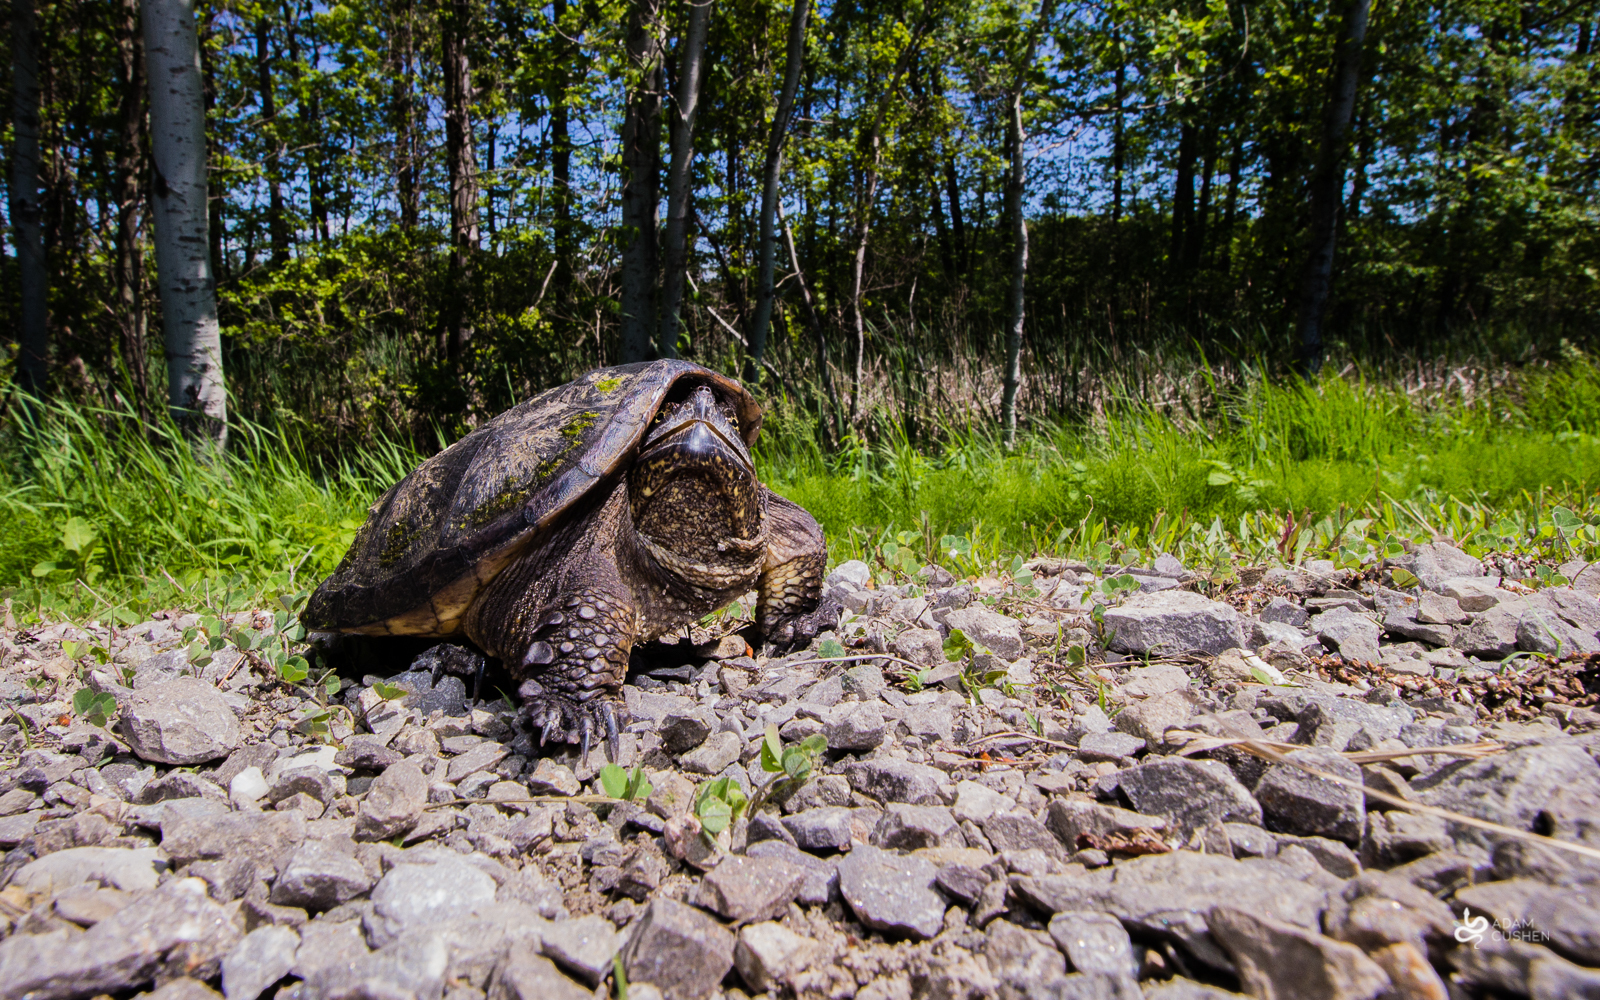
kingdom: Animalia
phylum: Chordata
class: Testudines
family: Chelydridae
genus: Chelydra
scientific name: Chelydra serpentina
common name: Common snapping turtle
